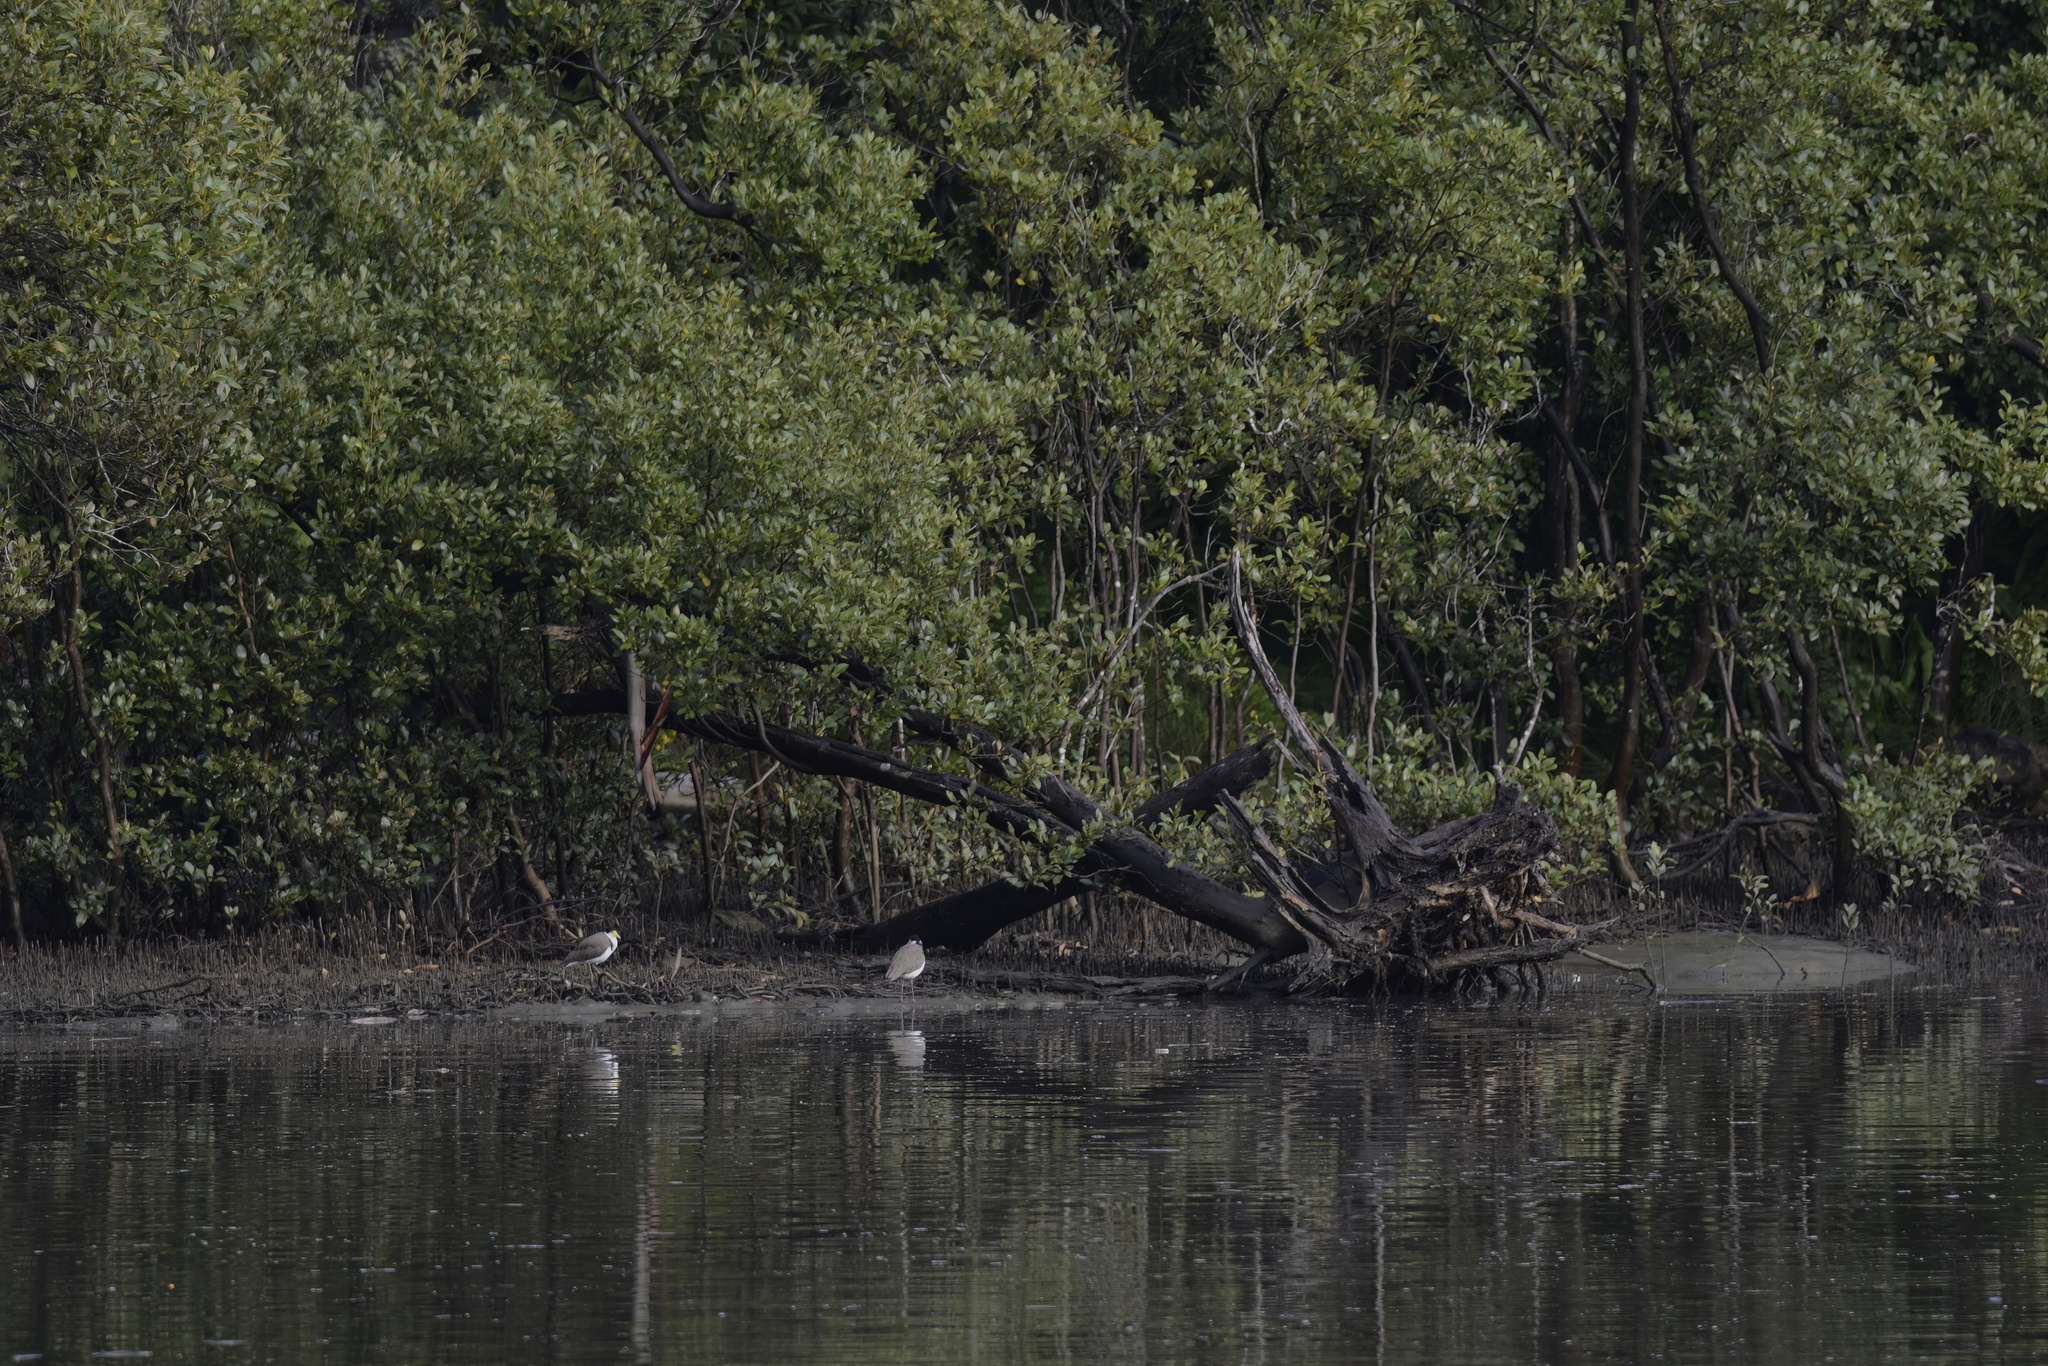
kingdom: Animalia
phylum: Chordata
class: Aves
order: Charadriiformes
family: Charadriidae
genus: Vanellus
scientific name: Vanellus miles
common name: Masked lapwing
